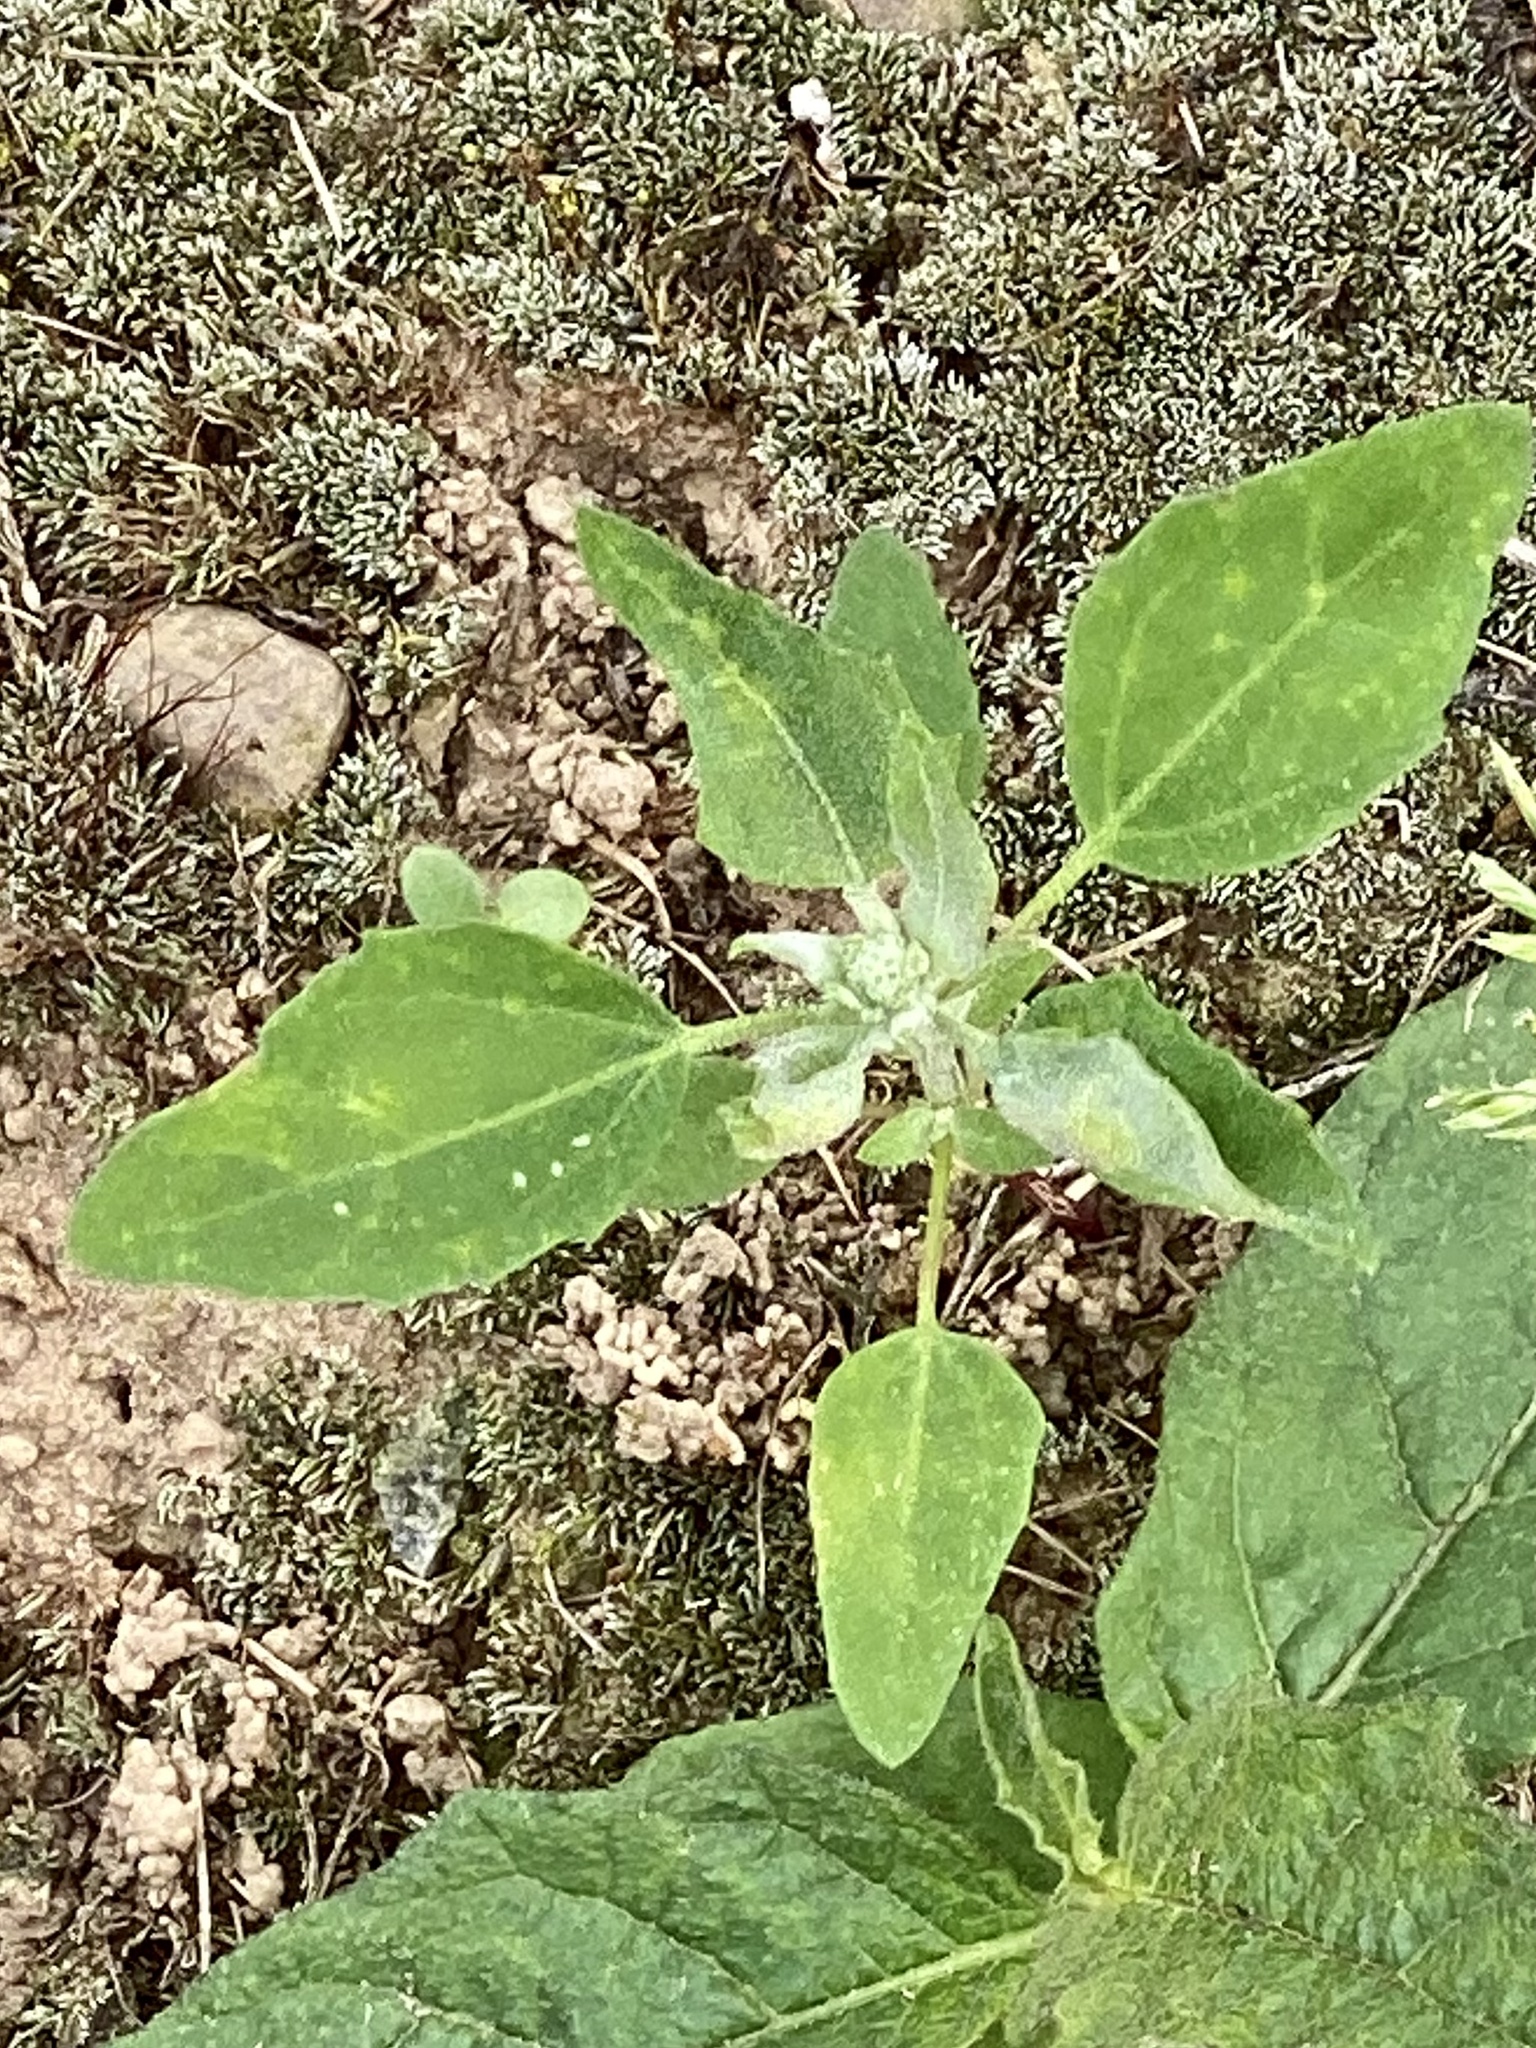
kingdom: Plantae
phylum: Tracheophyta
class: Magnoliopsida
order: Caryophyllales
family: Amaranthaceae
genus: Chenopodium
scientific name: Chenopodium album
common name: Fat-hen
